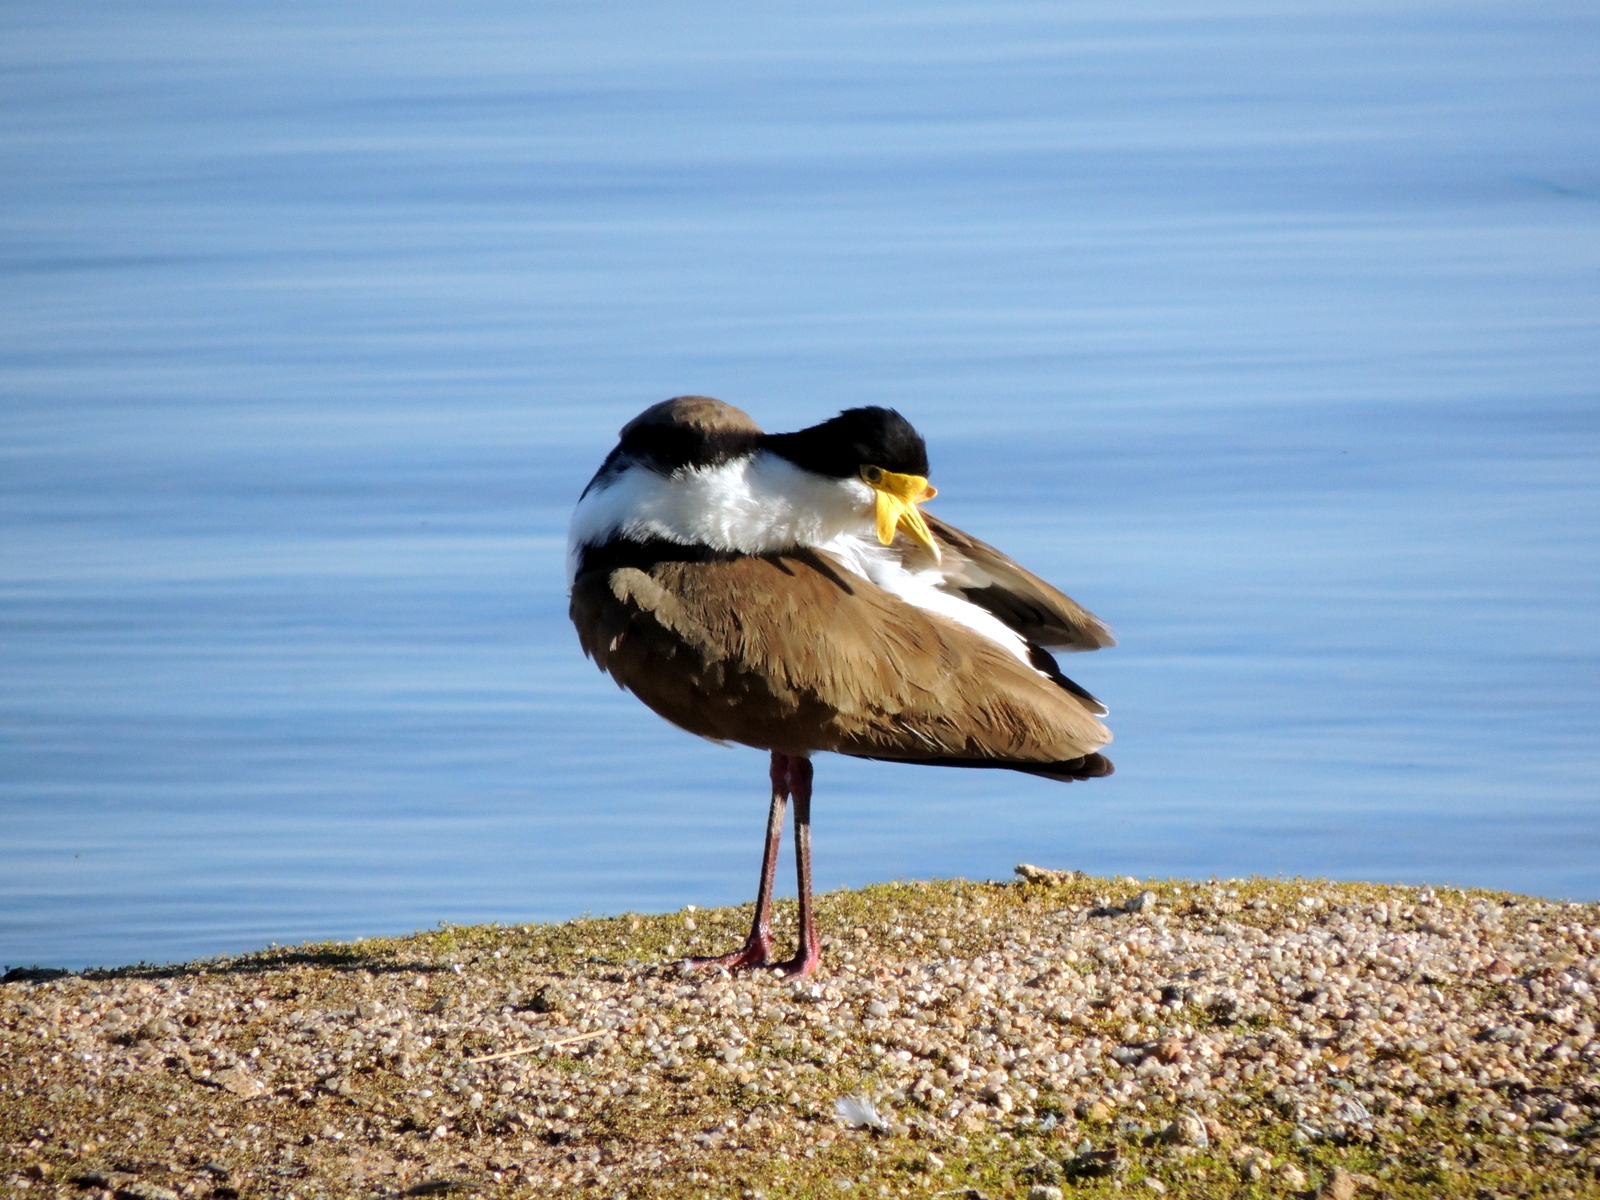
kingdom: Animalia
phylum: Chordata
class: Aves
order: Charadriiformes
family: Charadriidae
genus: Vanellus
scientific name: Vanellus miles
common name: Masked lapwing
